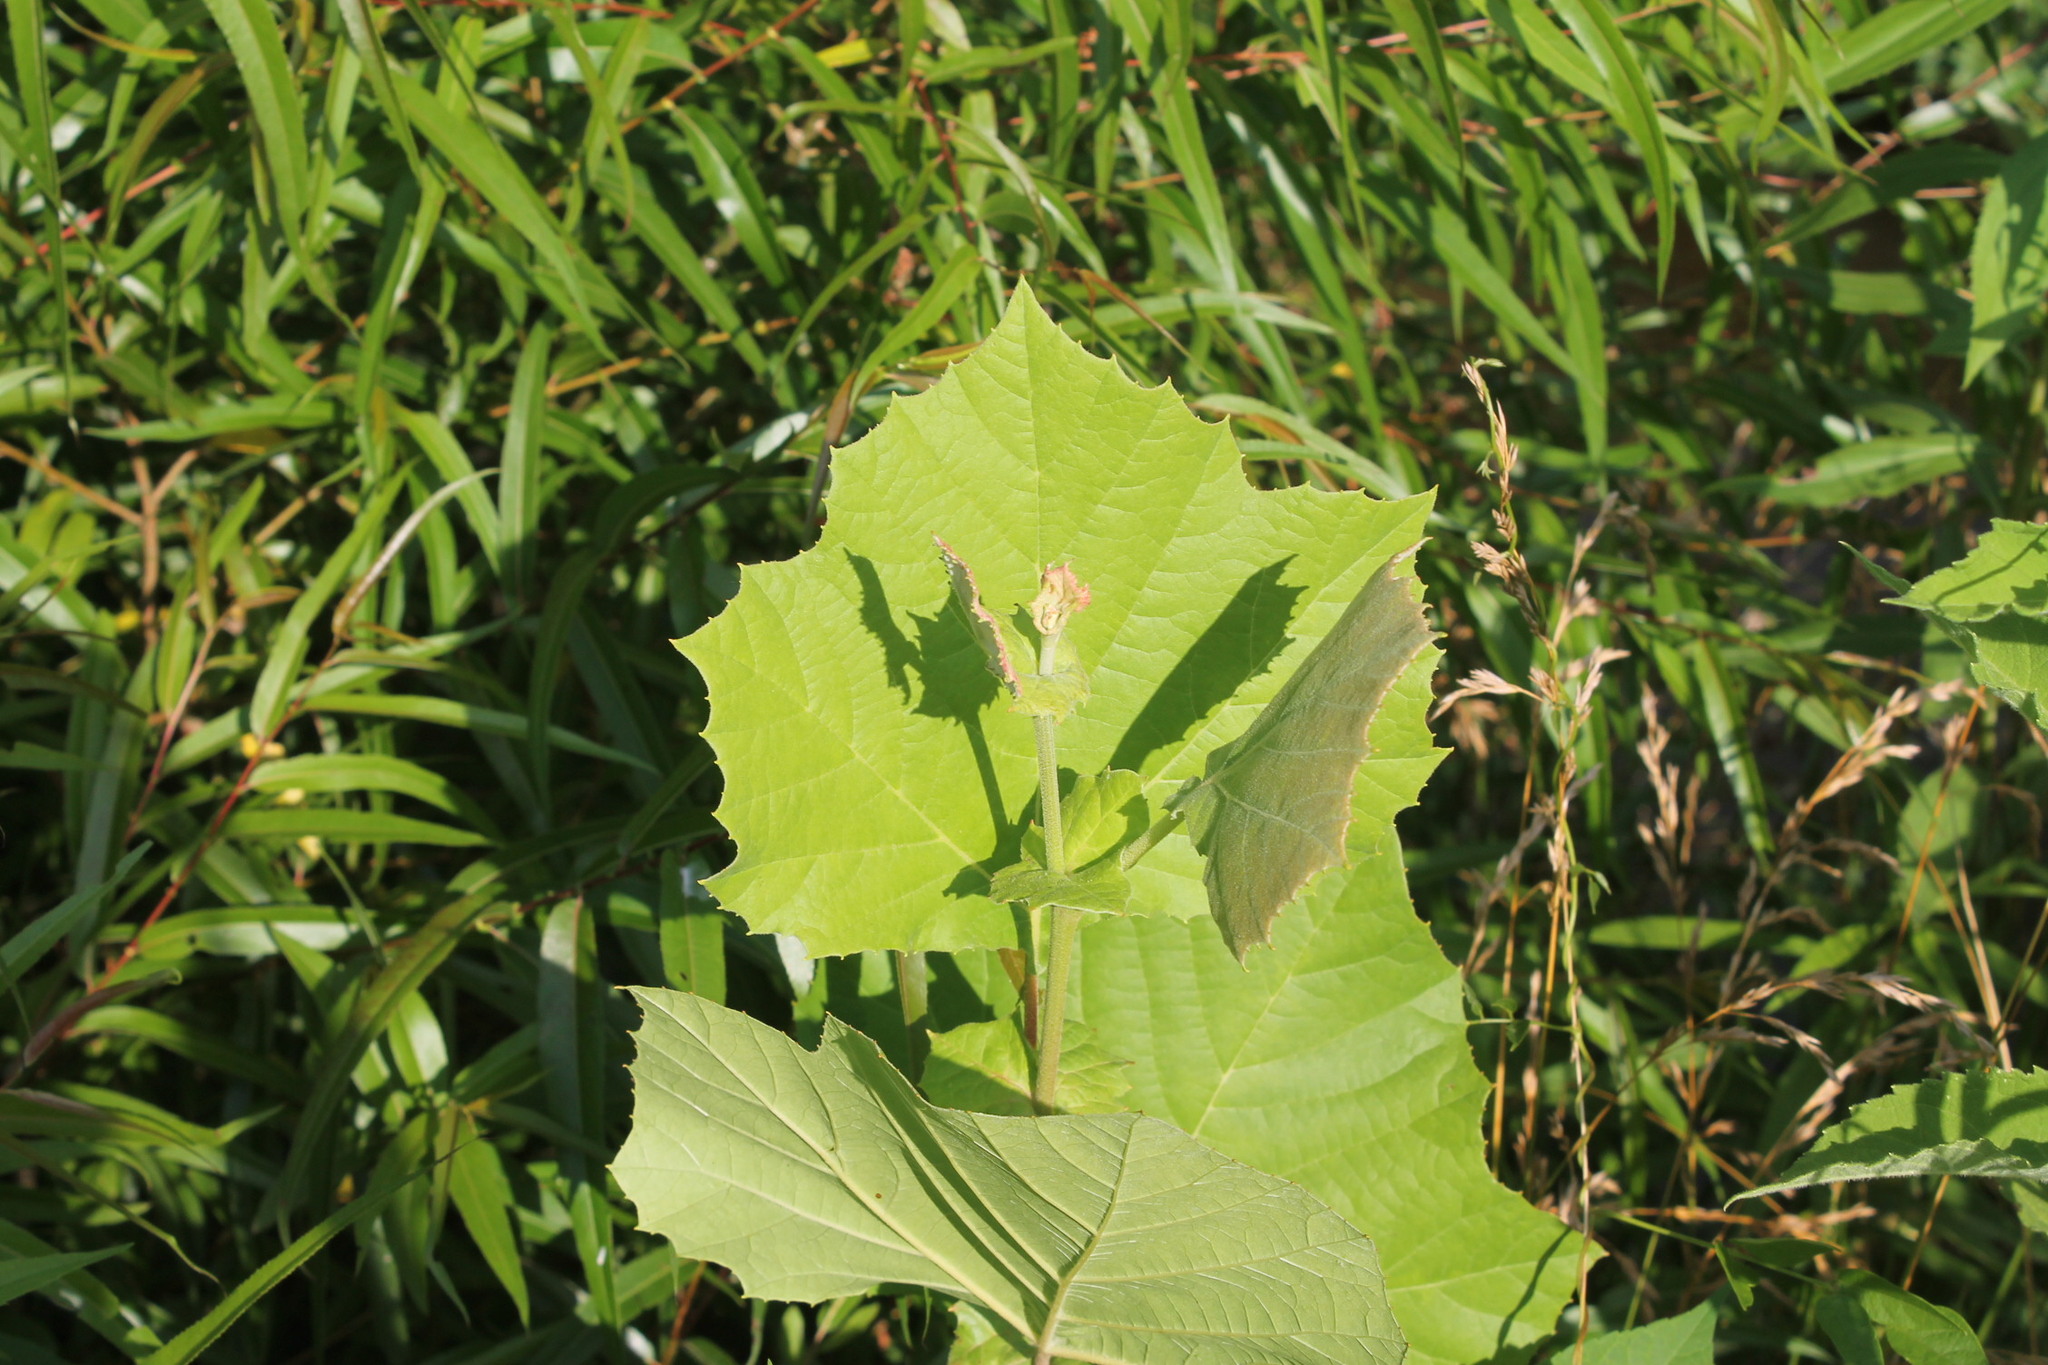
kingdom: Plantae
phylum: Tracheophyta
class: Magnoliopsida
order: Proteales
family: Platanaceae
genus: Platanus
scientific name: Platanus occidentalis
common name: American sycamore
